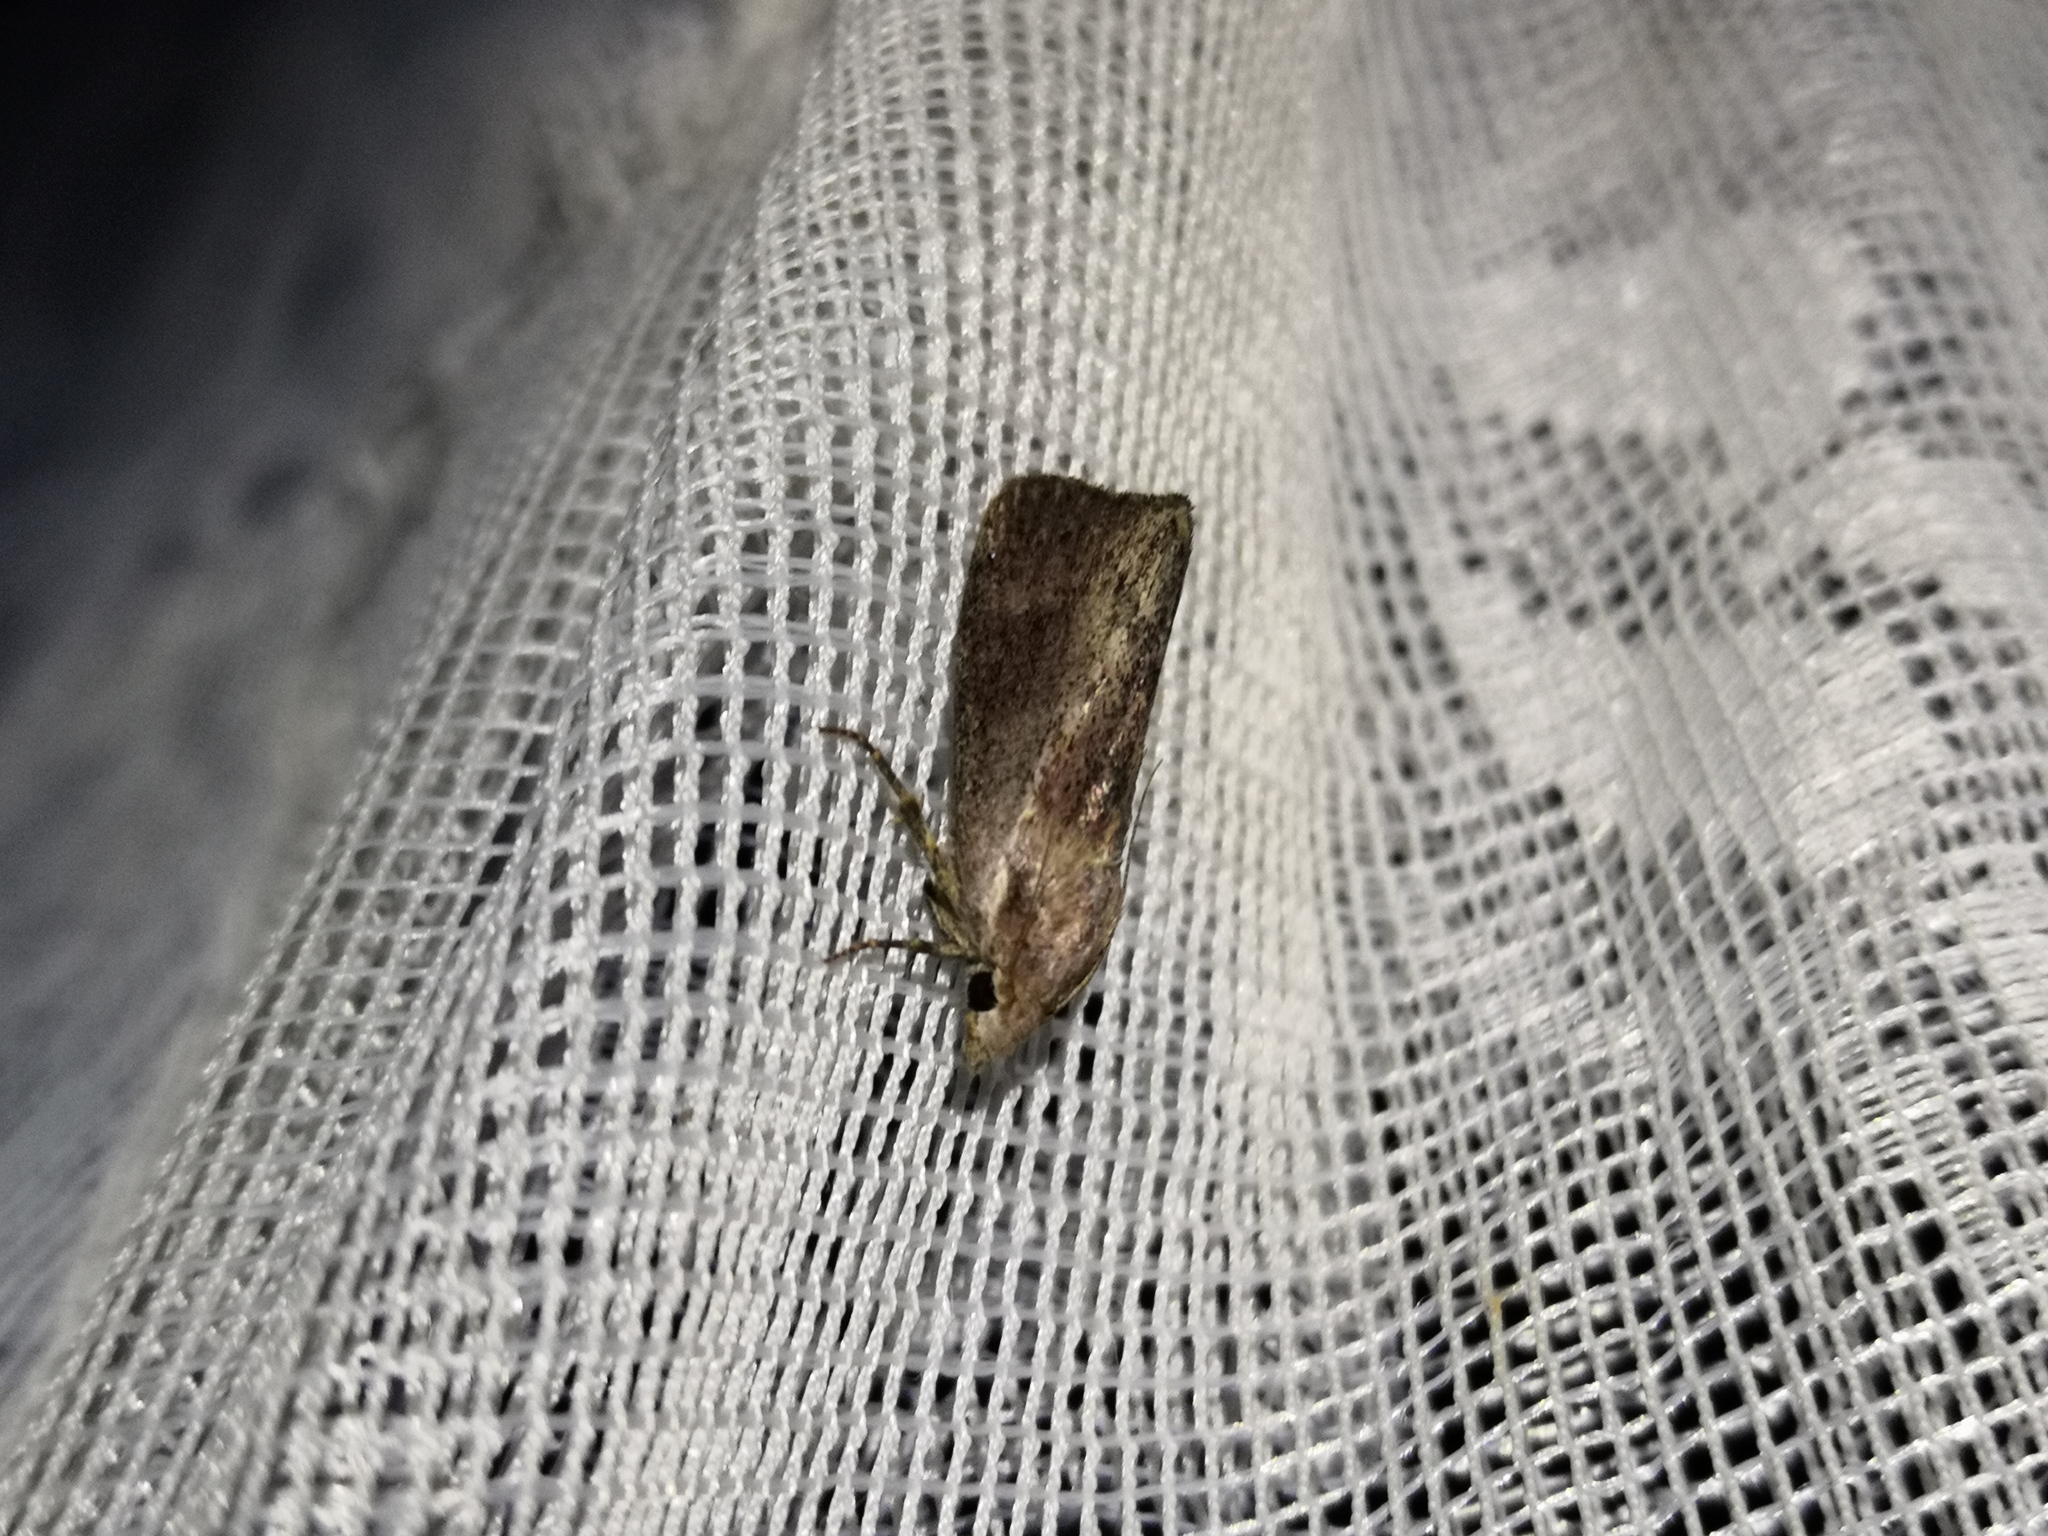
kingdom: Animalia
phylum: Arthropoda
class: Insecta
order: Lepidoptera
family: Pyralidae
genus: Galleria
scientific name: Galleria mellonella
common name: Greater wax moth
